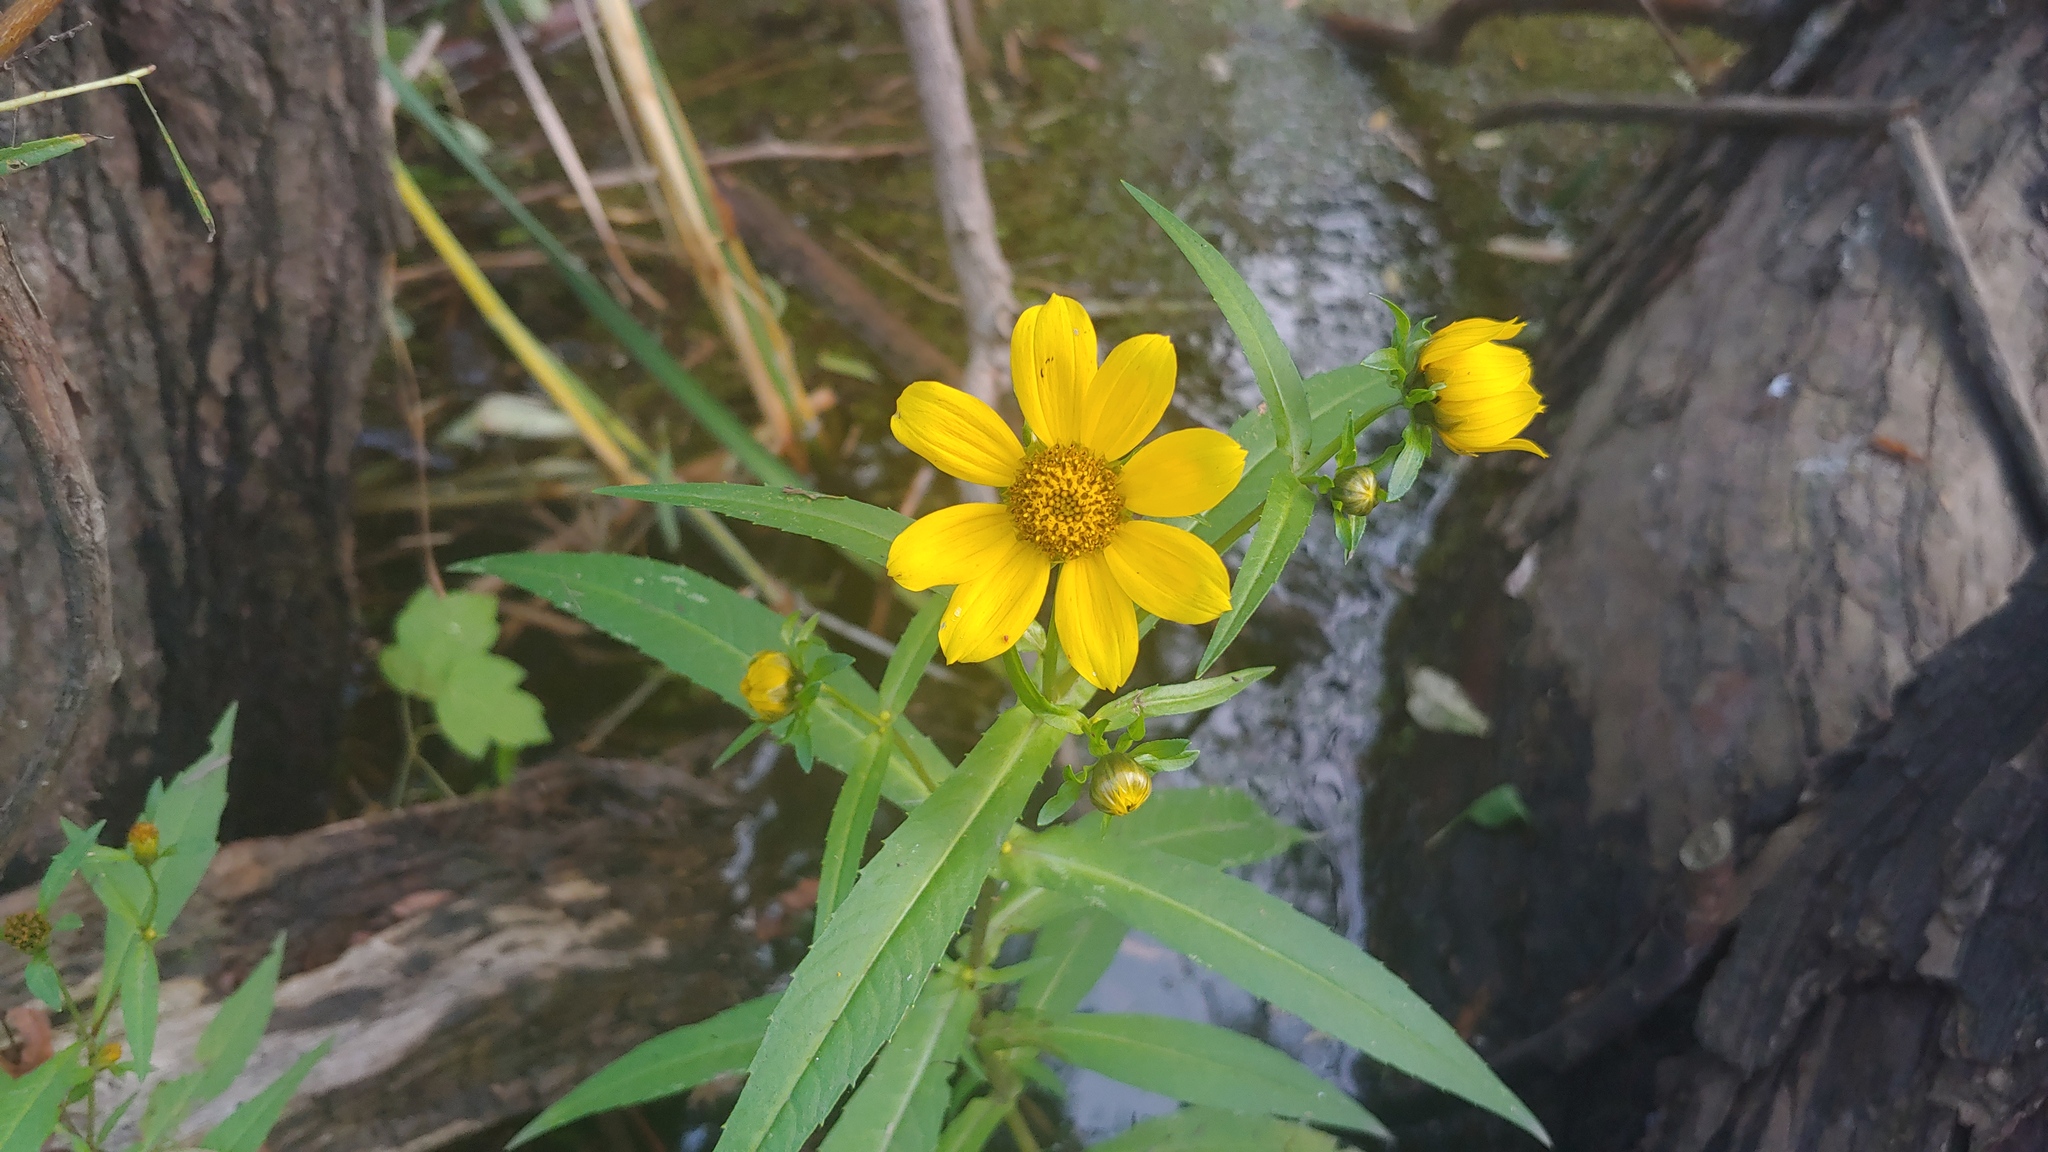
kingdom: Plantae
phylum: Tracheophyta
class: Magnoliopsida
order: Asterales
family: Asteraceae
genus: Bidens
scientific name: Bidens cernua
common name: Nodding bur-marigold
